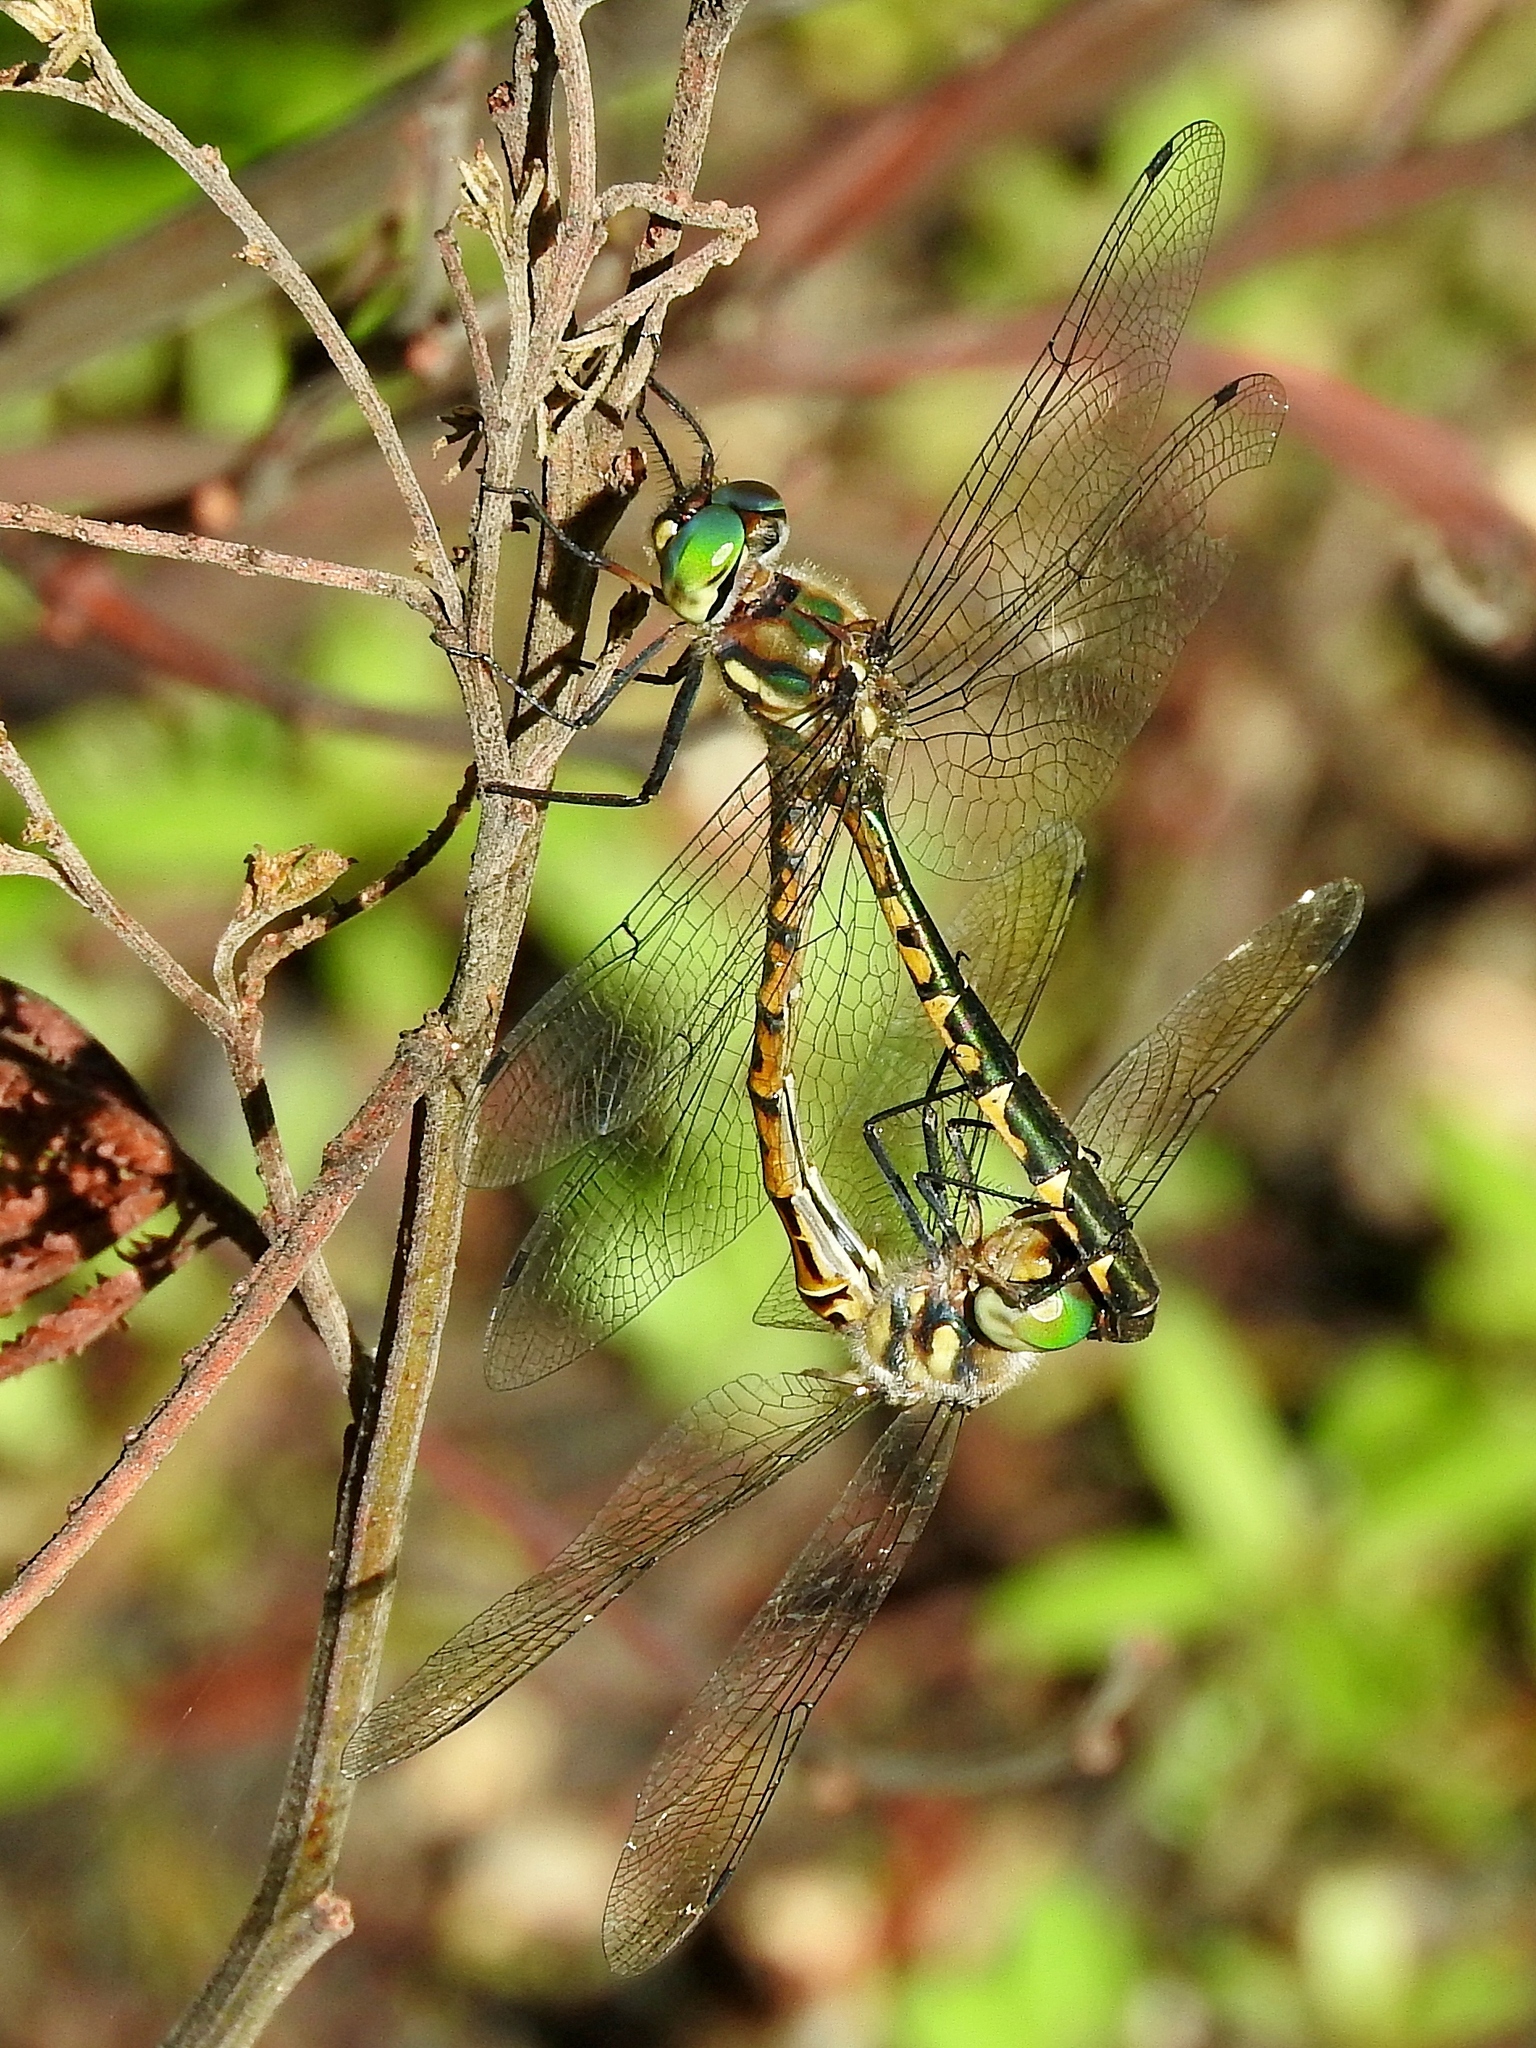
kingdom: Animalia
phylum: Arthropoda
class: Insecta
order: Odonata
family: Corduliidae
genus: Hemicordulia
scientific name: Hemicordulia australiae
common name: Sentry dragonfly
